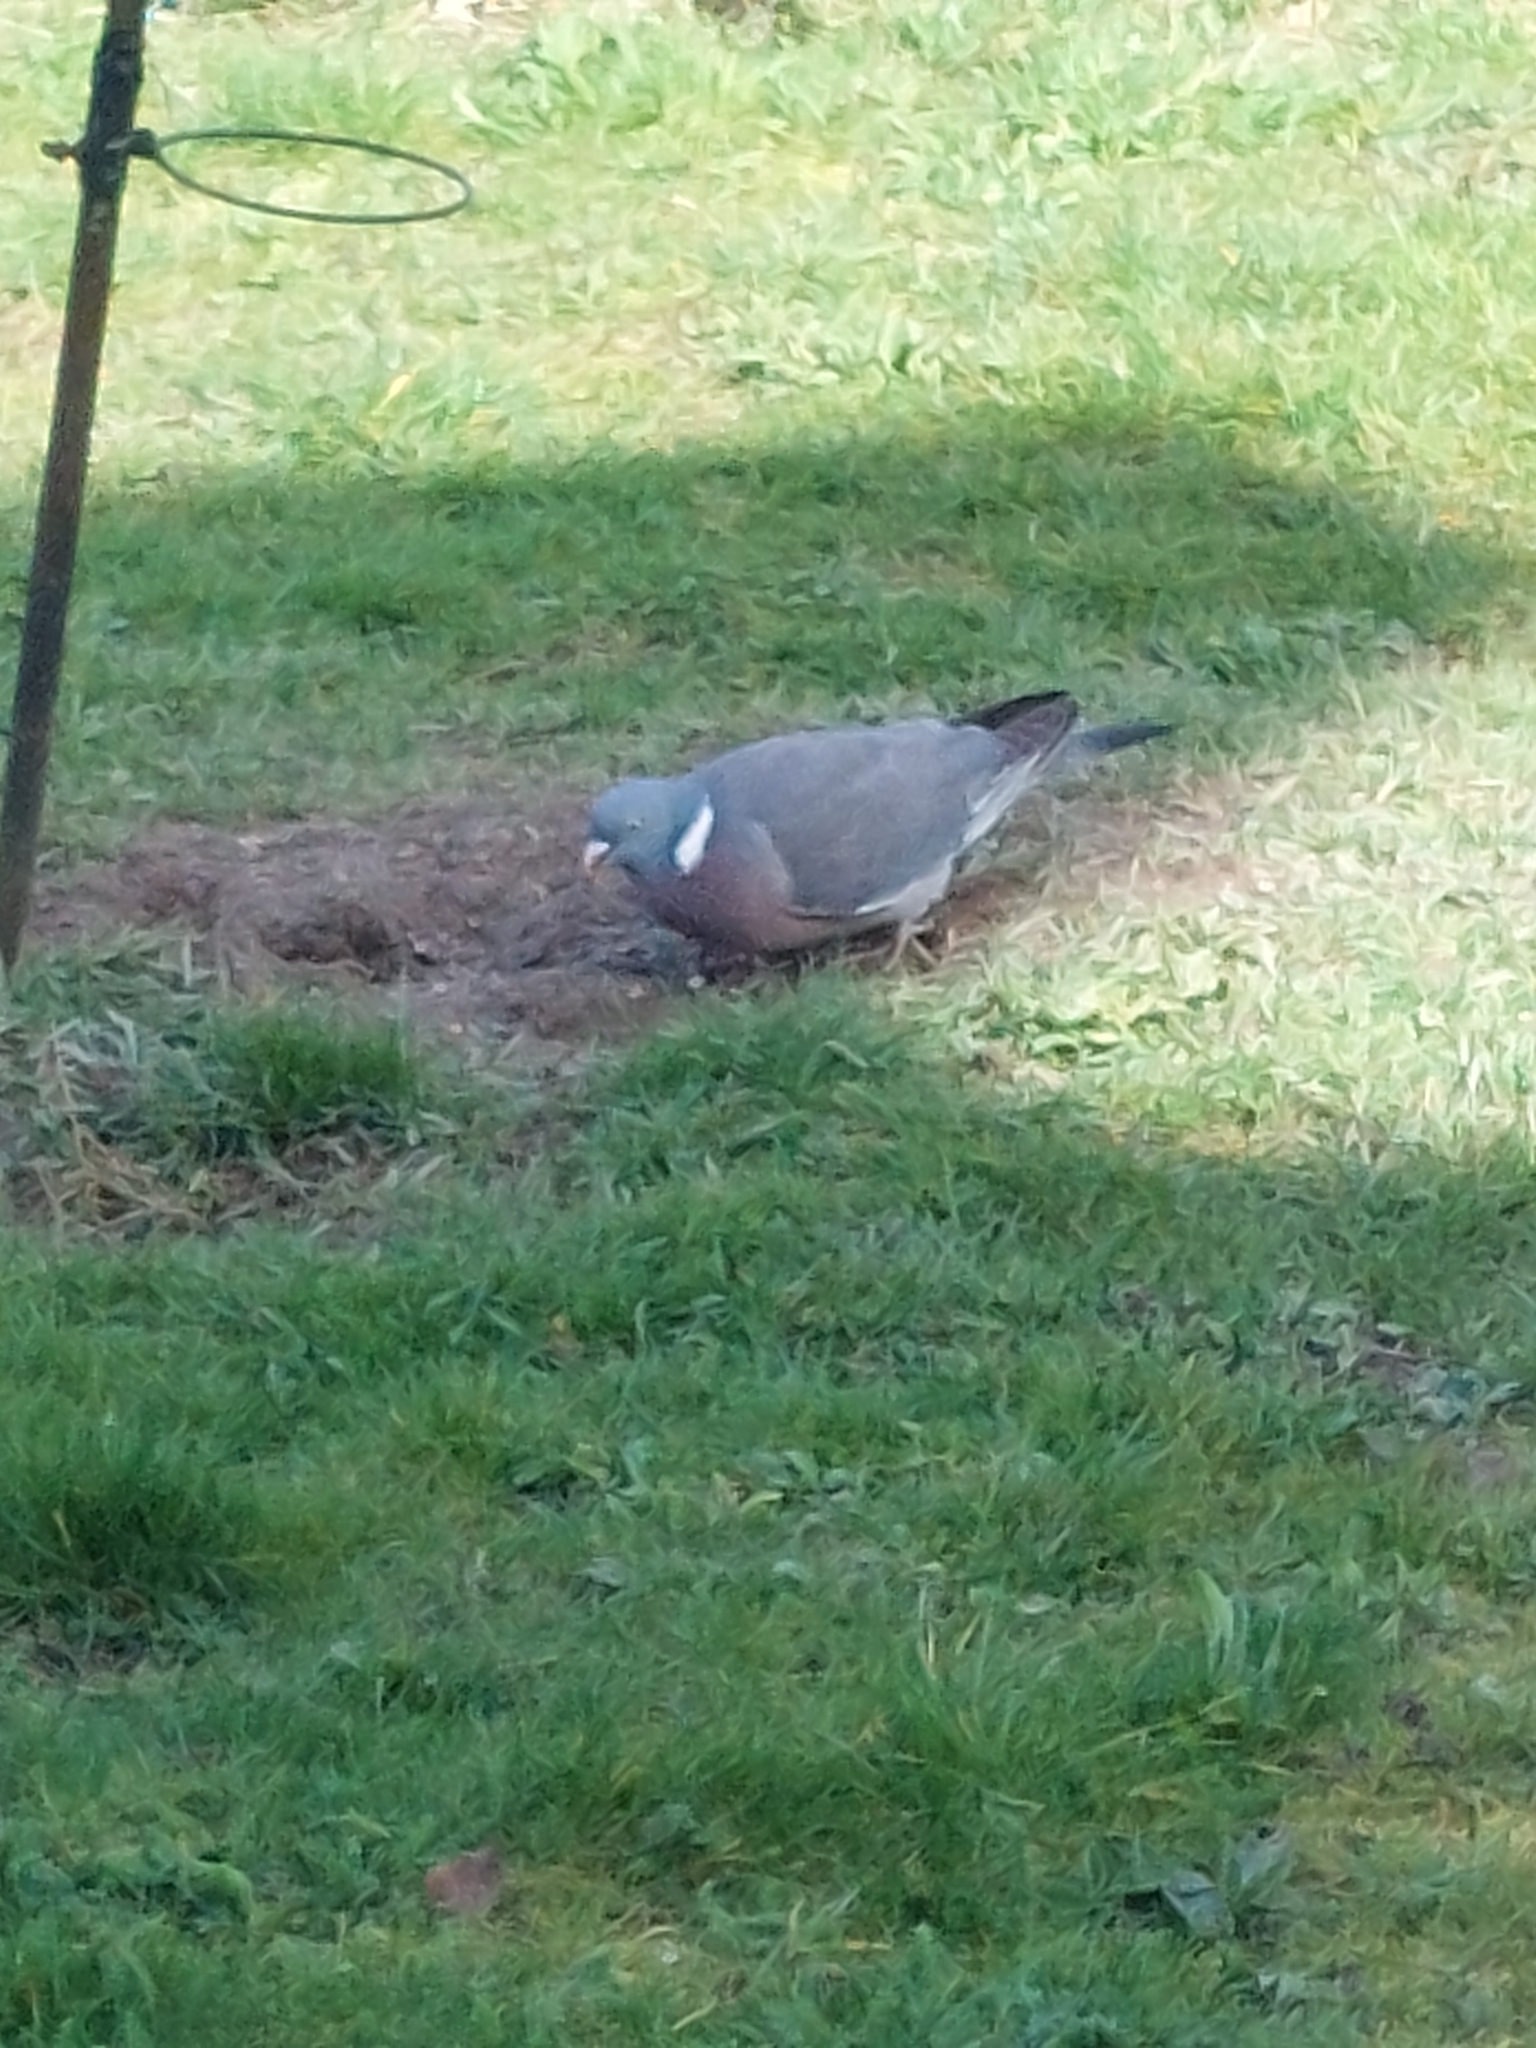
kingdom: Animalia
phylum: Chordata
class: Aves
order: Columbiformes
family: Columbidae
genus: Columba
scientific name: Columba palumbus
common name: Common wood pigeon
